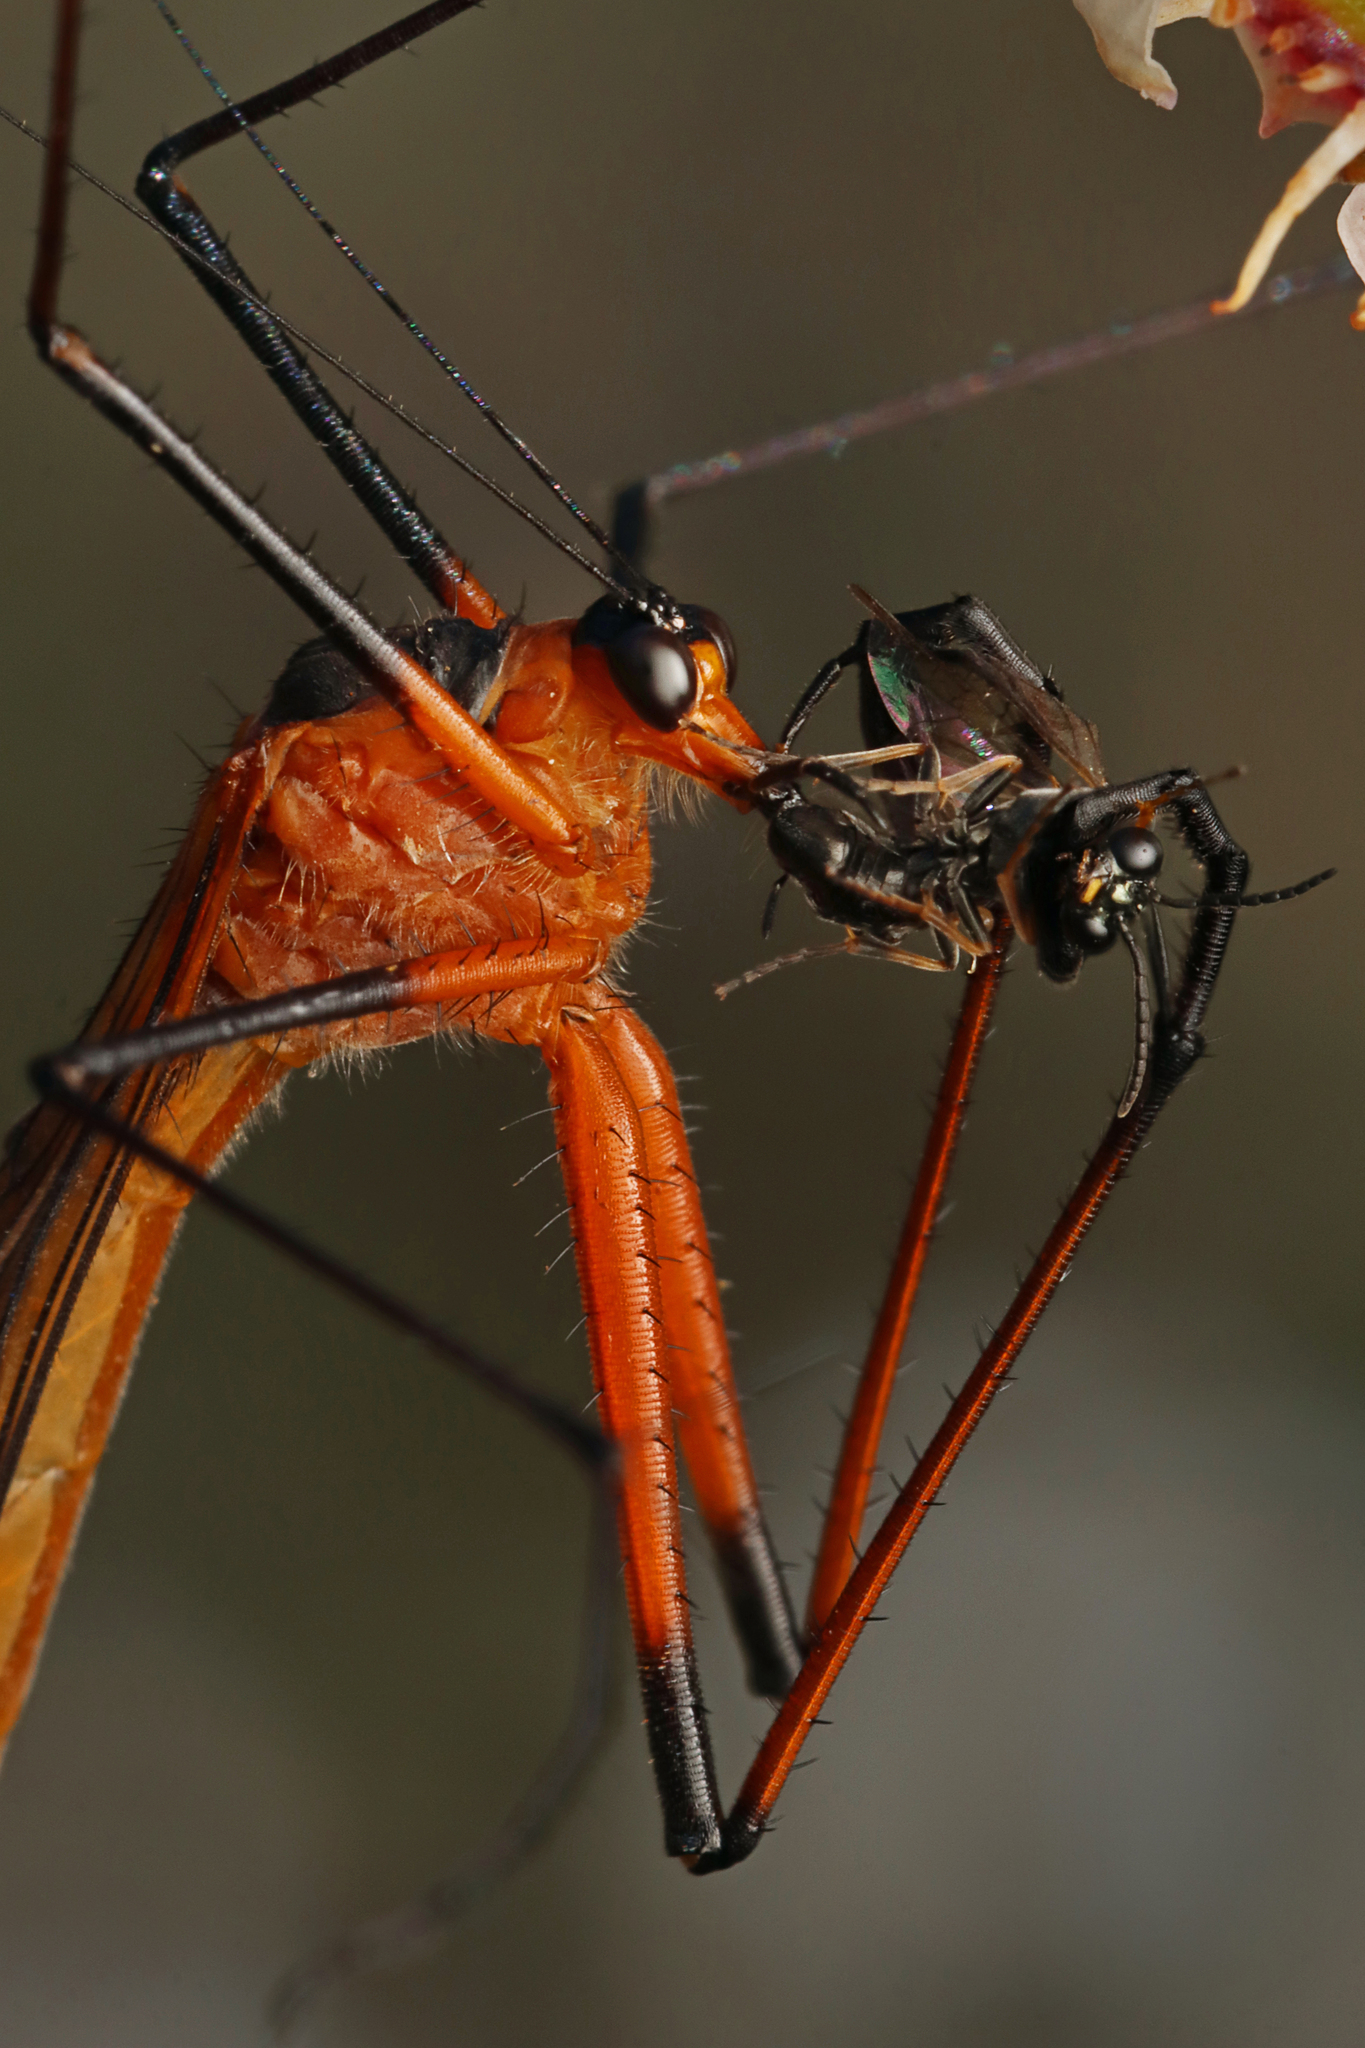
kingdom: Animalia
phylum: Arthropoda
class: Insecta
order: Mecoptera
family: Bittacidae
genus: Harpobittacus
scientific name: Harpobittacus australis
